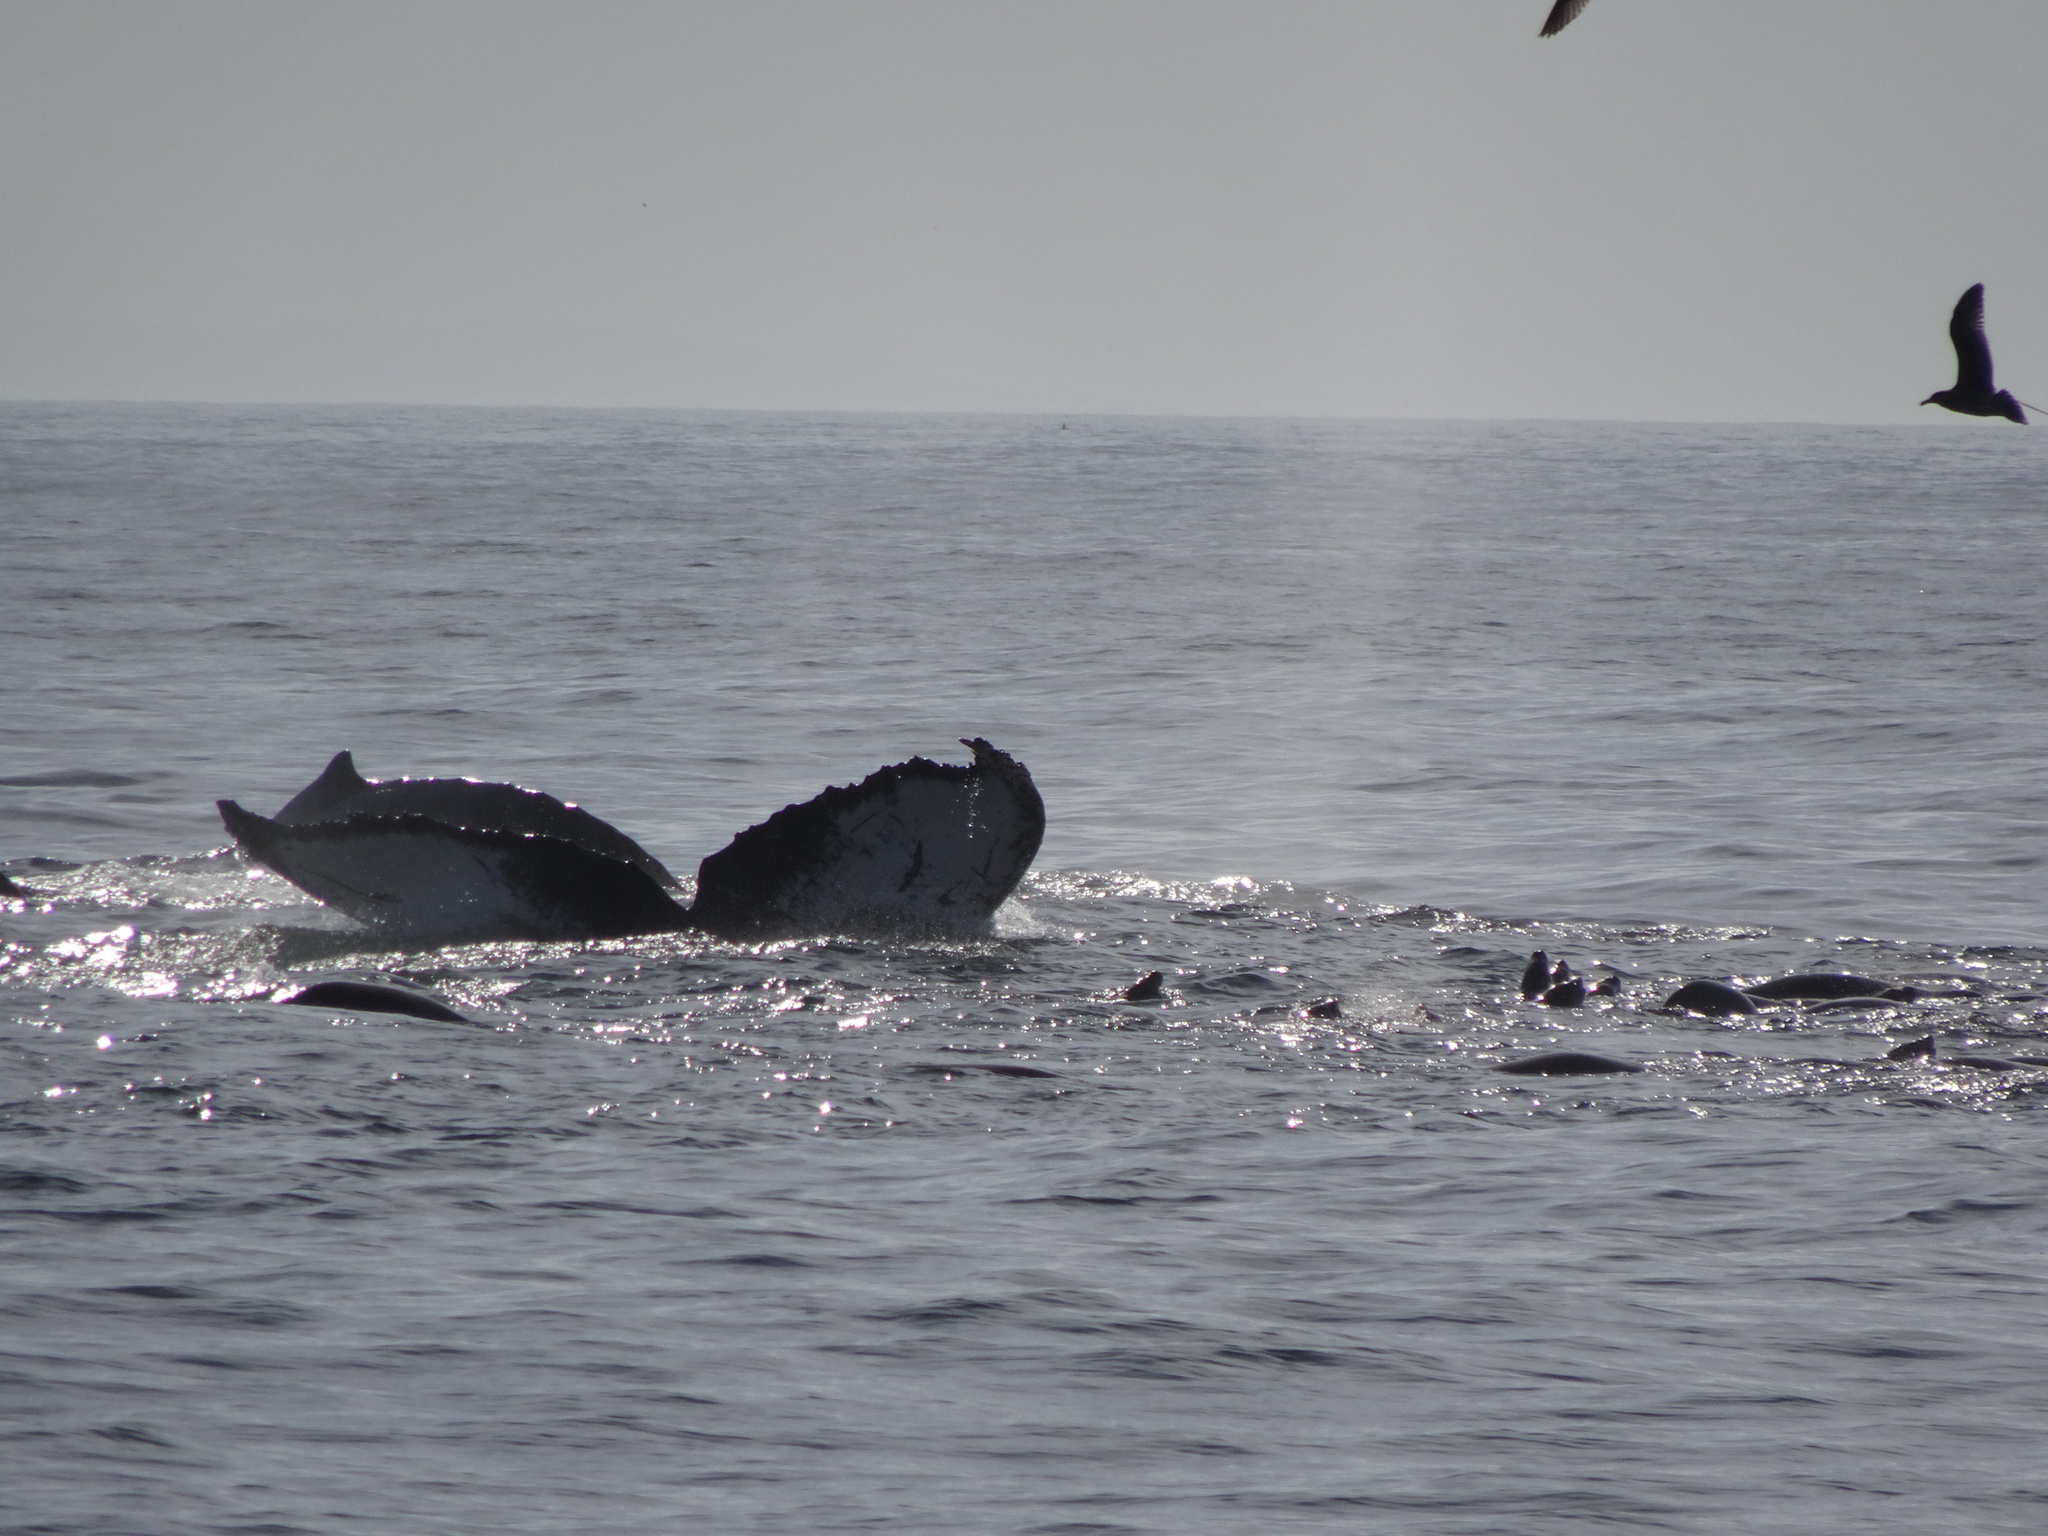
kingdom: Animalia
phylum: Chordata
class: Mammalia
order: Cetacea
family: Balaenopteridae
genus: Megaptera
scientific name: Megaptera novaeangliae
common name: Humpback whale
